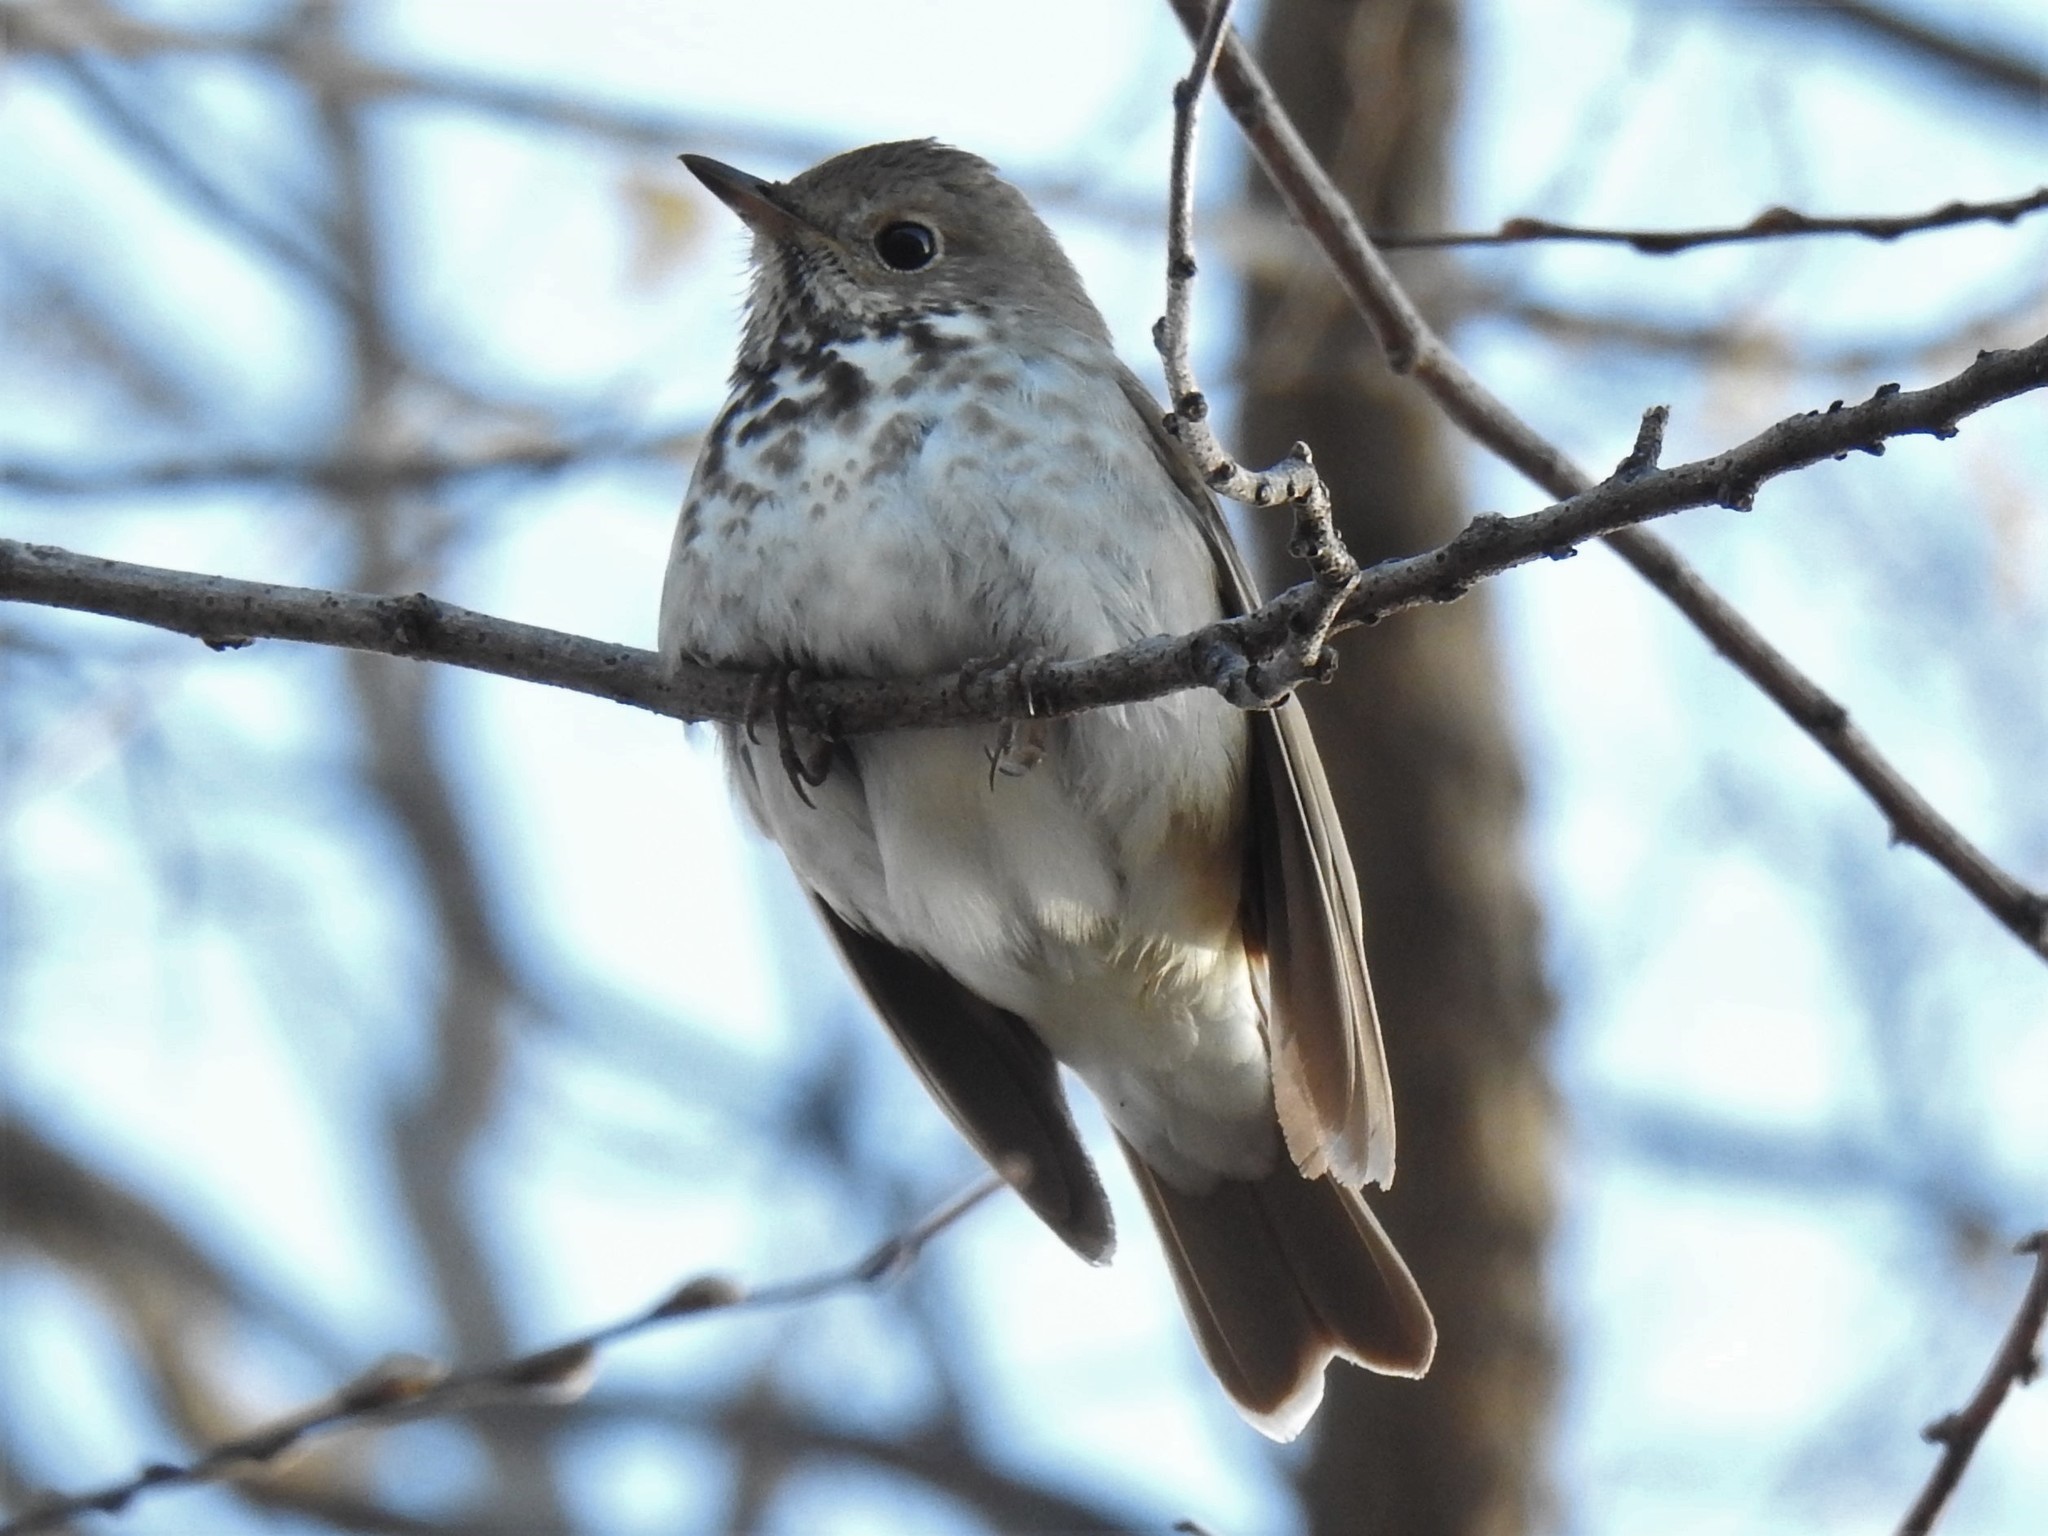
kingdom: Animalia
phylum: Chordata
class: Aves
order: Passeriformes
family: Turdidae
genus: Catharus
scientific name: Catharus guttatus
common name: Hermit thrush
